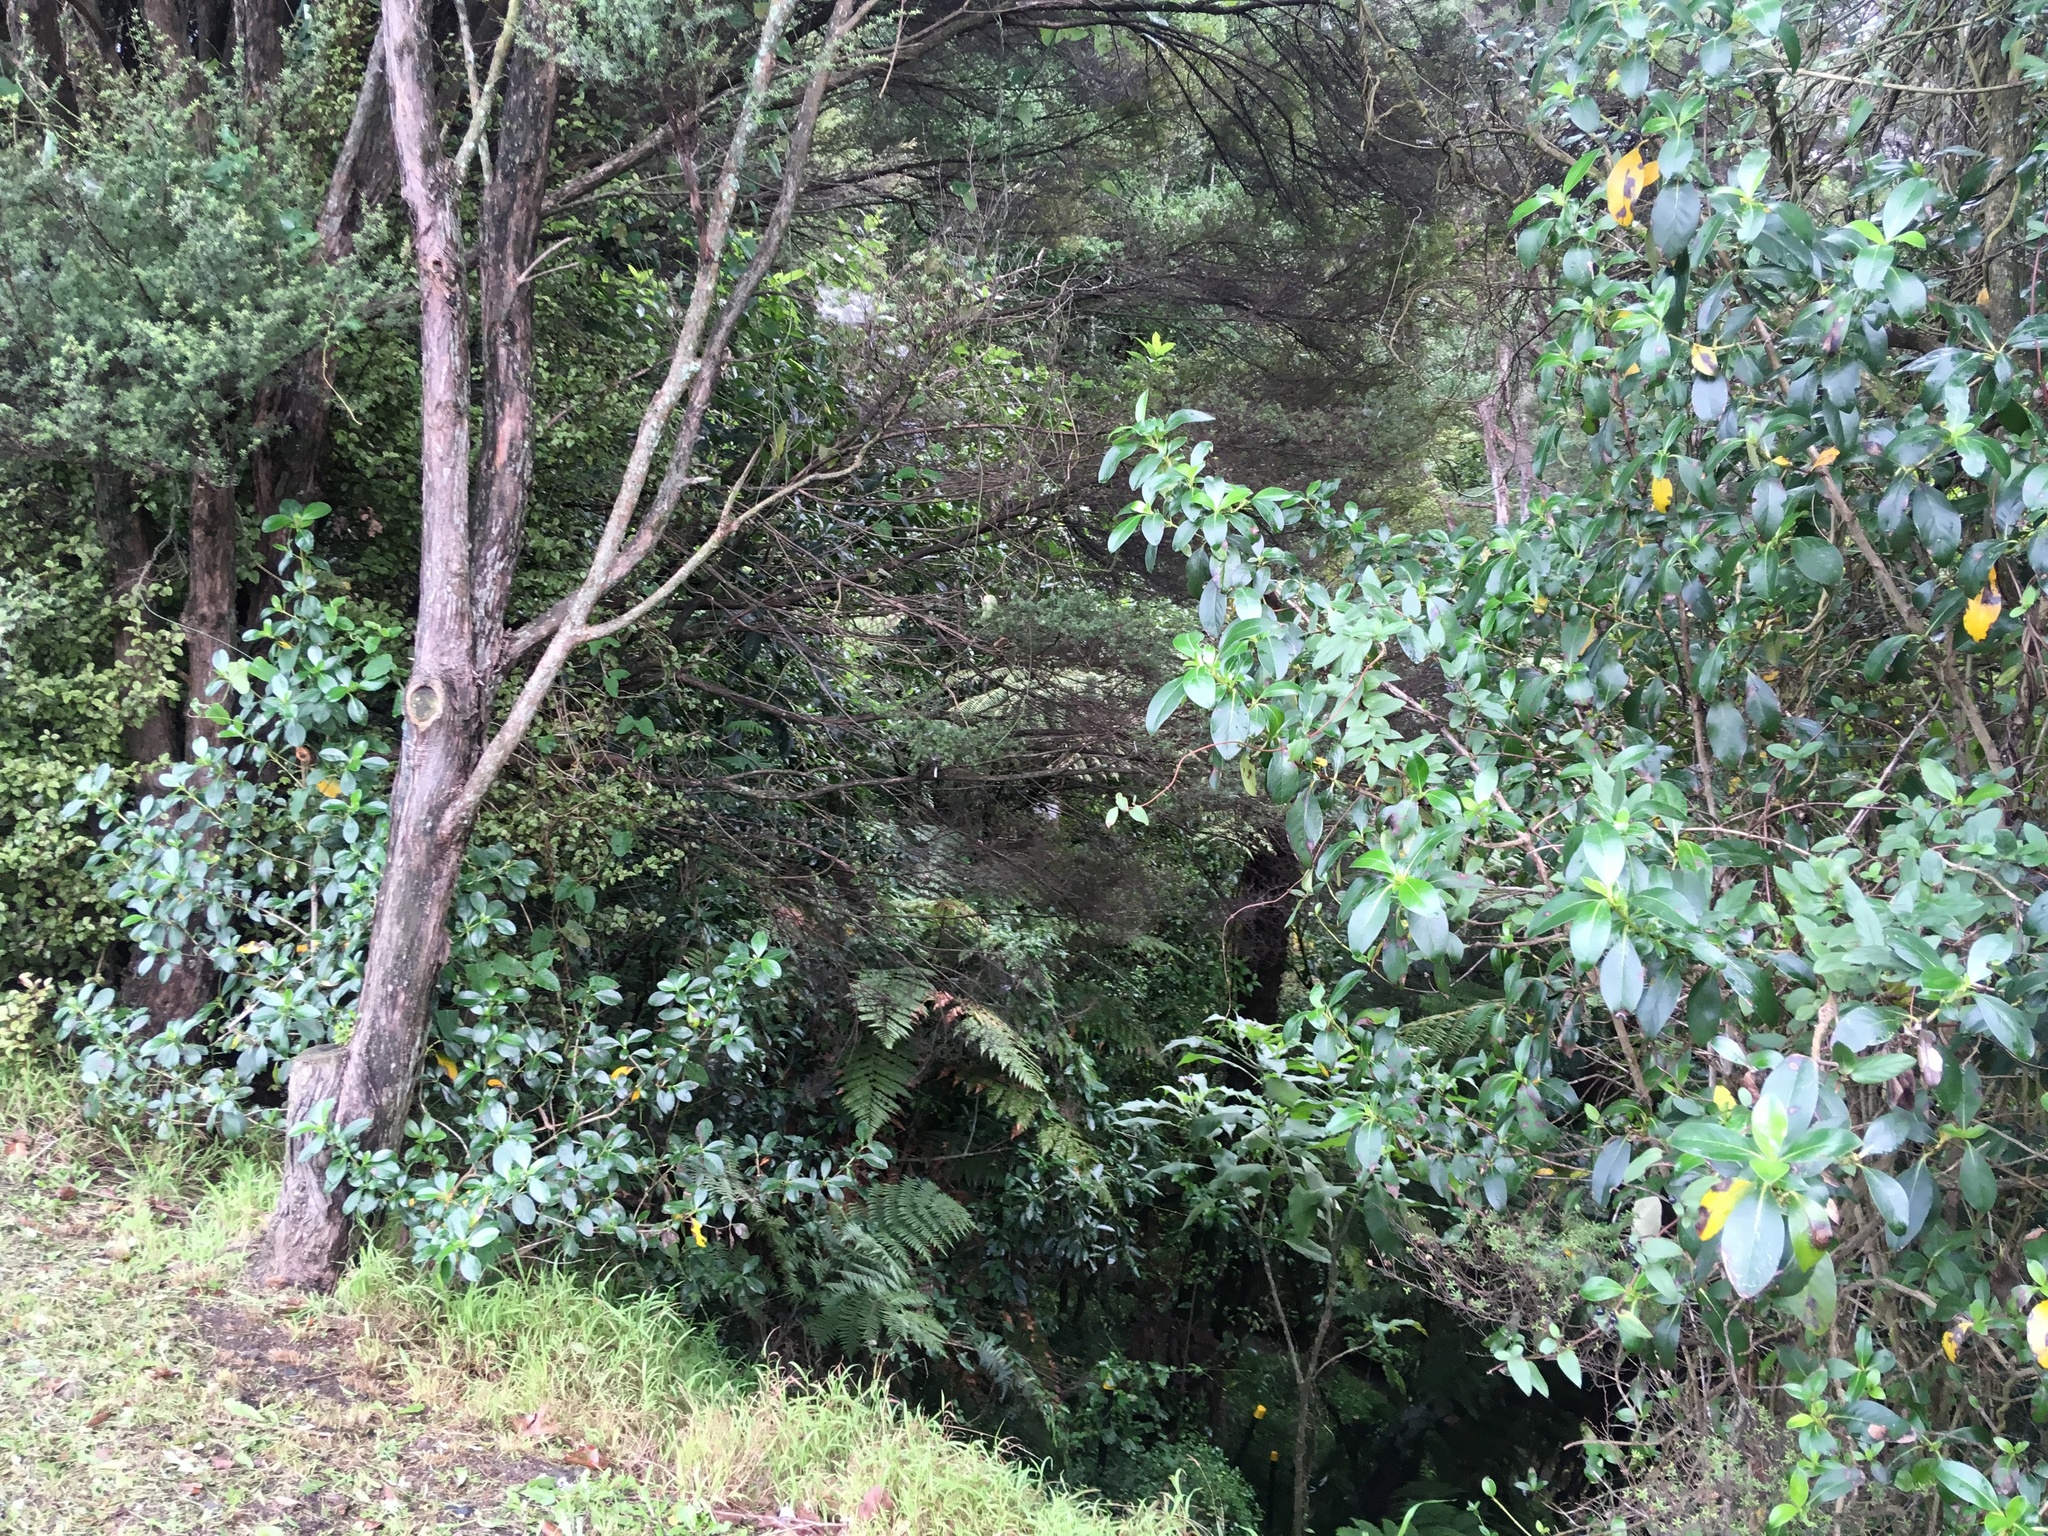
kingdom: Plantae
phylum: Tracheophyta
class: Magnoliopsida
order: Gentianales
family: Rubiaceae
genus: Coprosma
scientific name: Coprosma robusta
